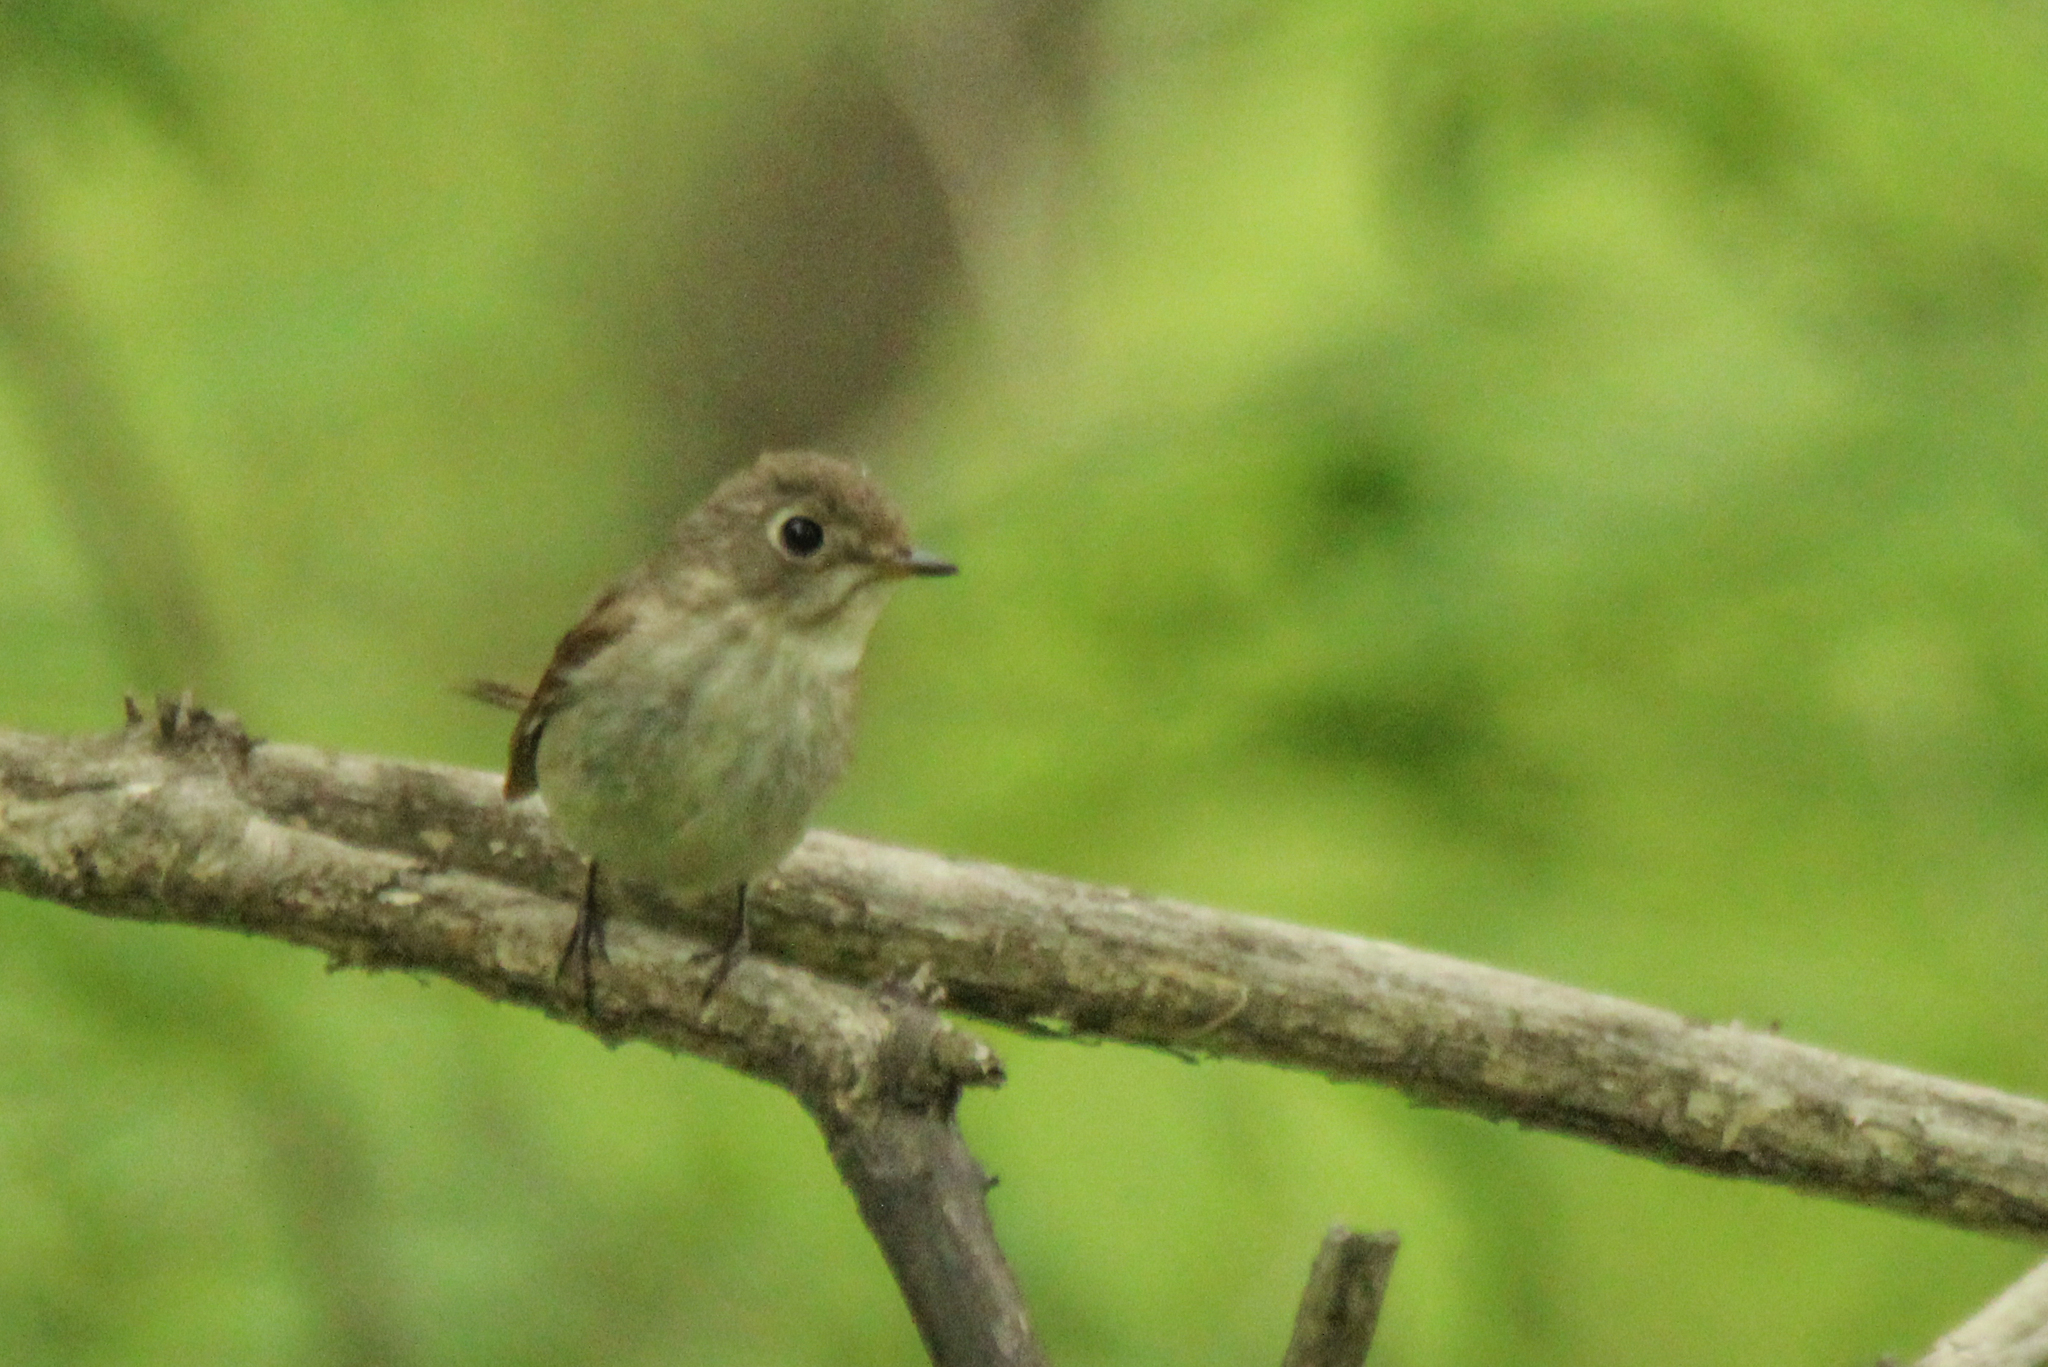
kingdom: Animalia
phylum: Chordata
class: Aves
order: Passeriformes
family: Muscicapidae
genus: Muscicapa
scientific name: Muscicapa latirostris
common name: Asian brown flycatcher
